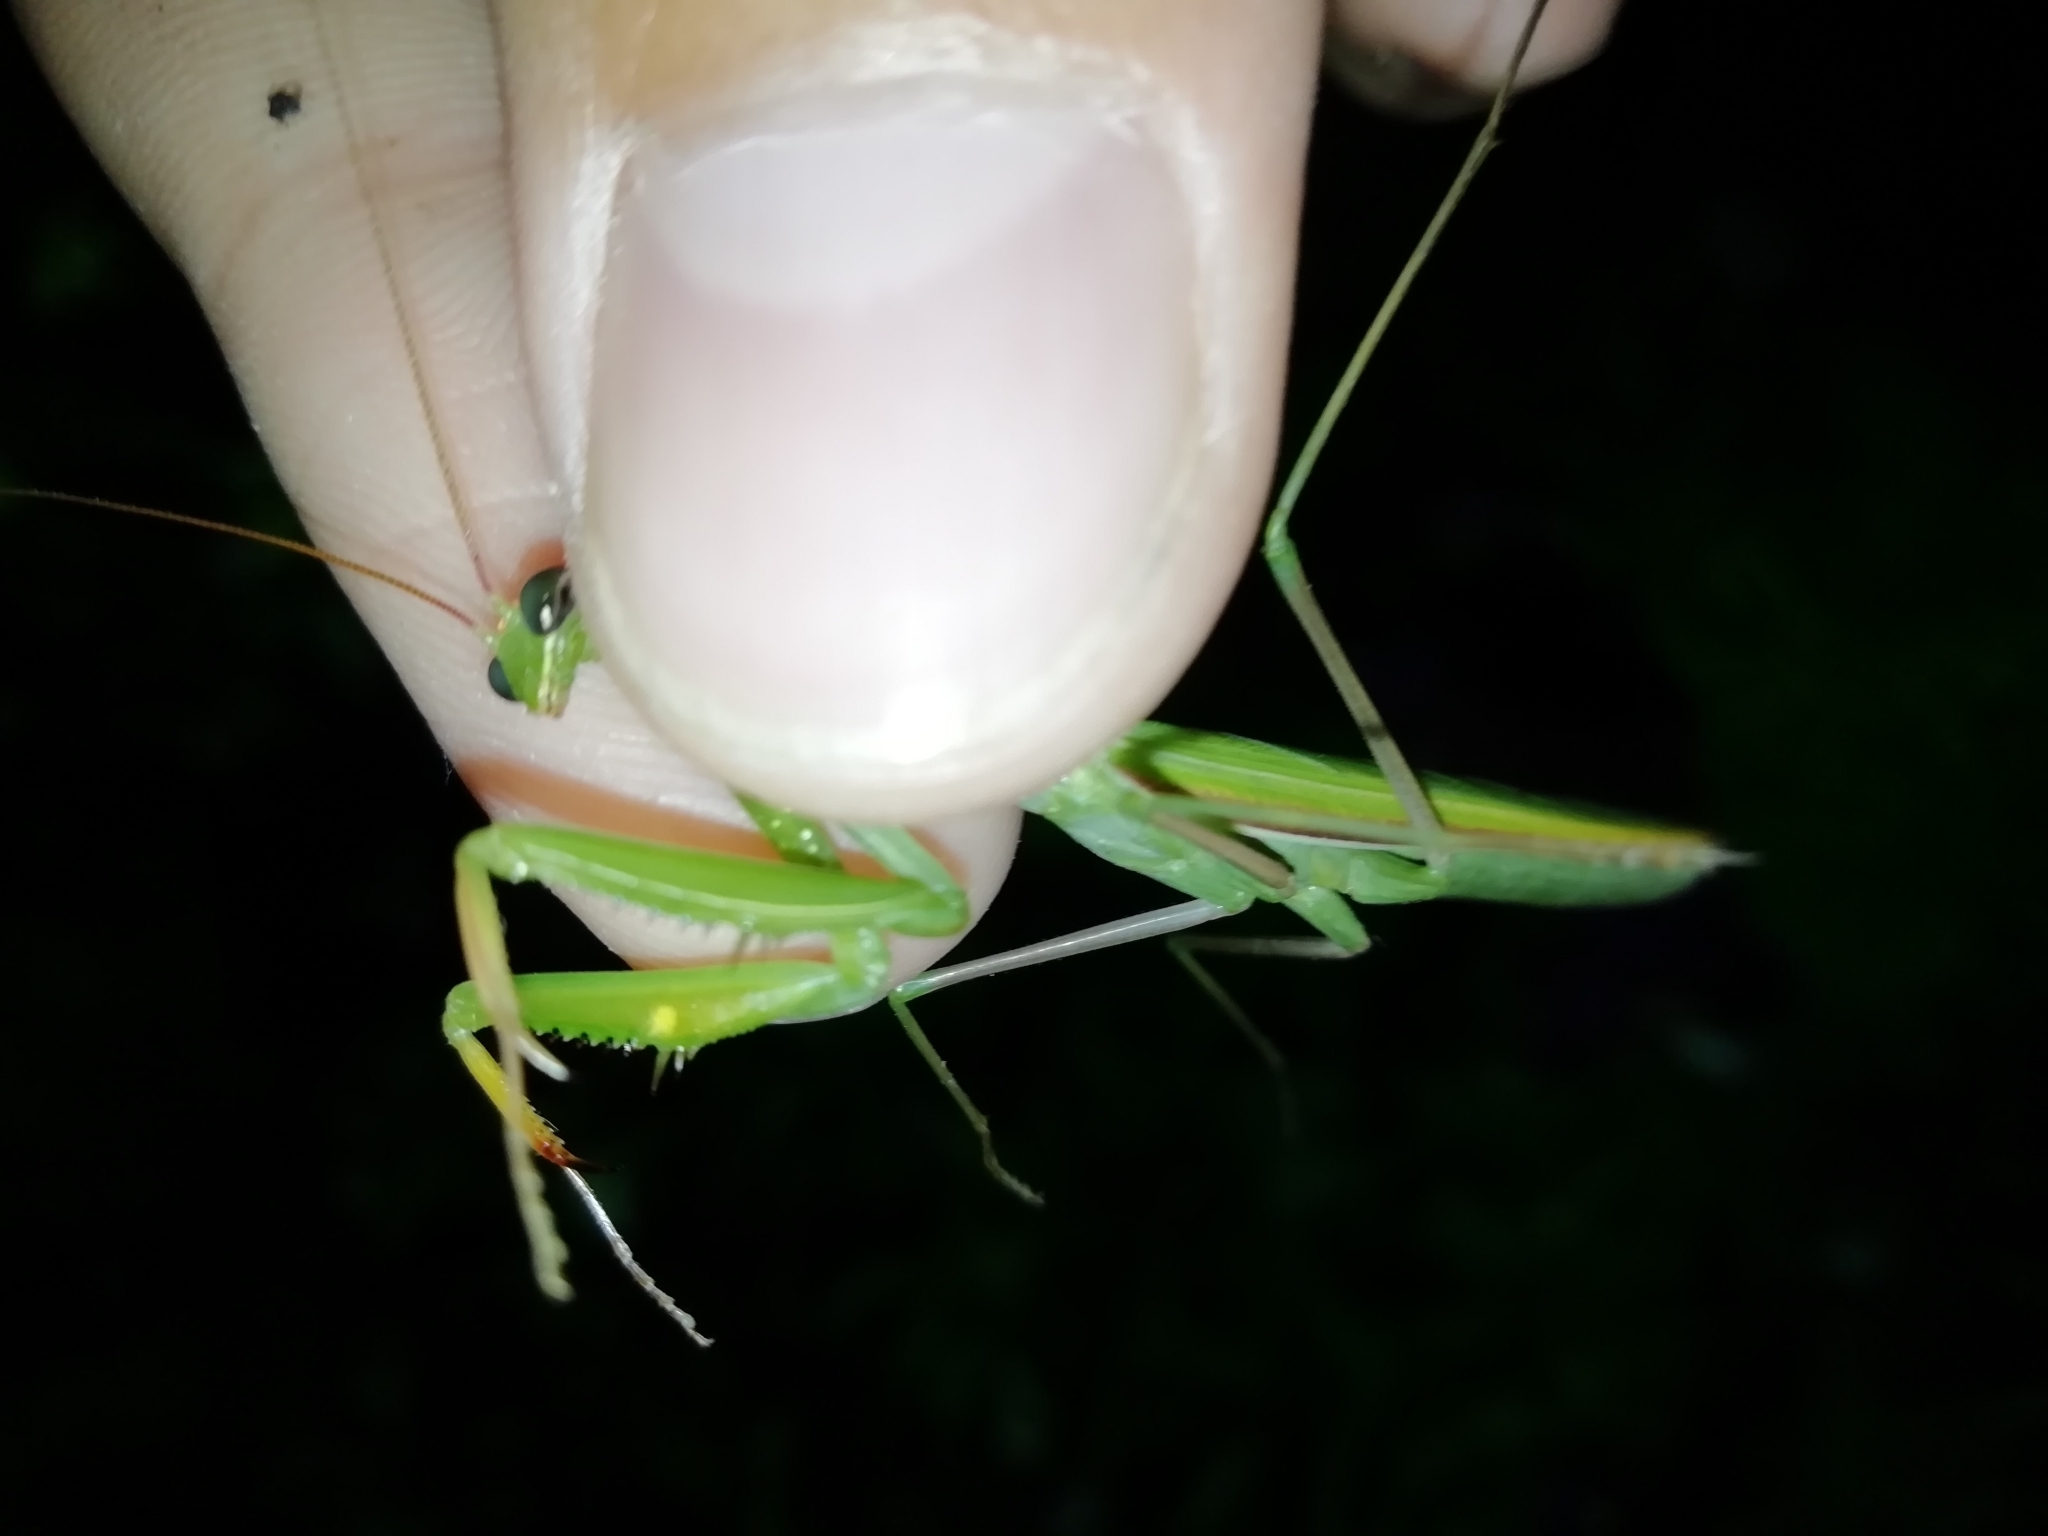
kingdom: Animalia
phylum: Arthropoda
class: Insecta
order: Mantodea
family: Mantidae
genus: Mantis
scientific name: Mantis religiosa
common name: Praying mantis
